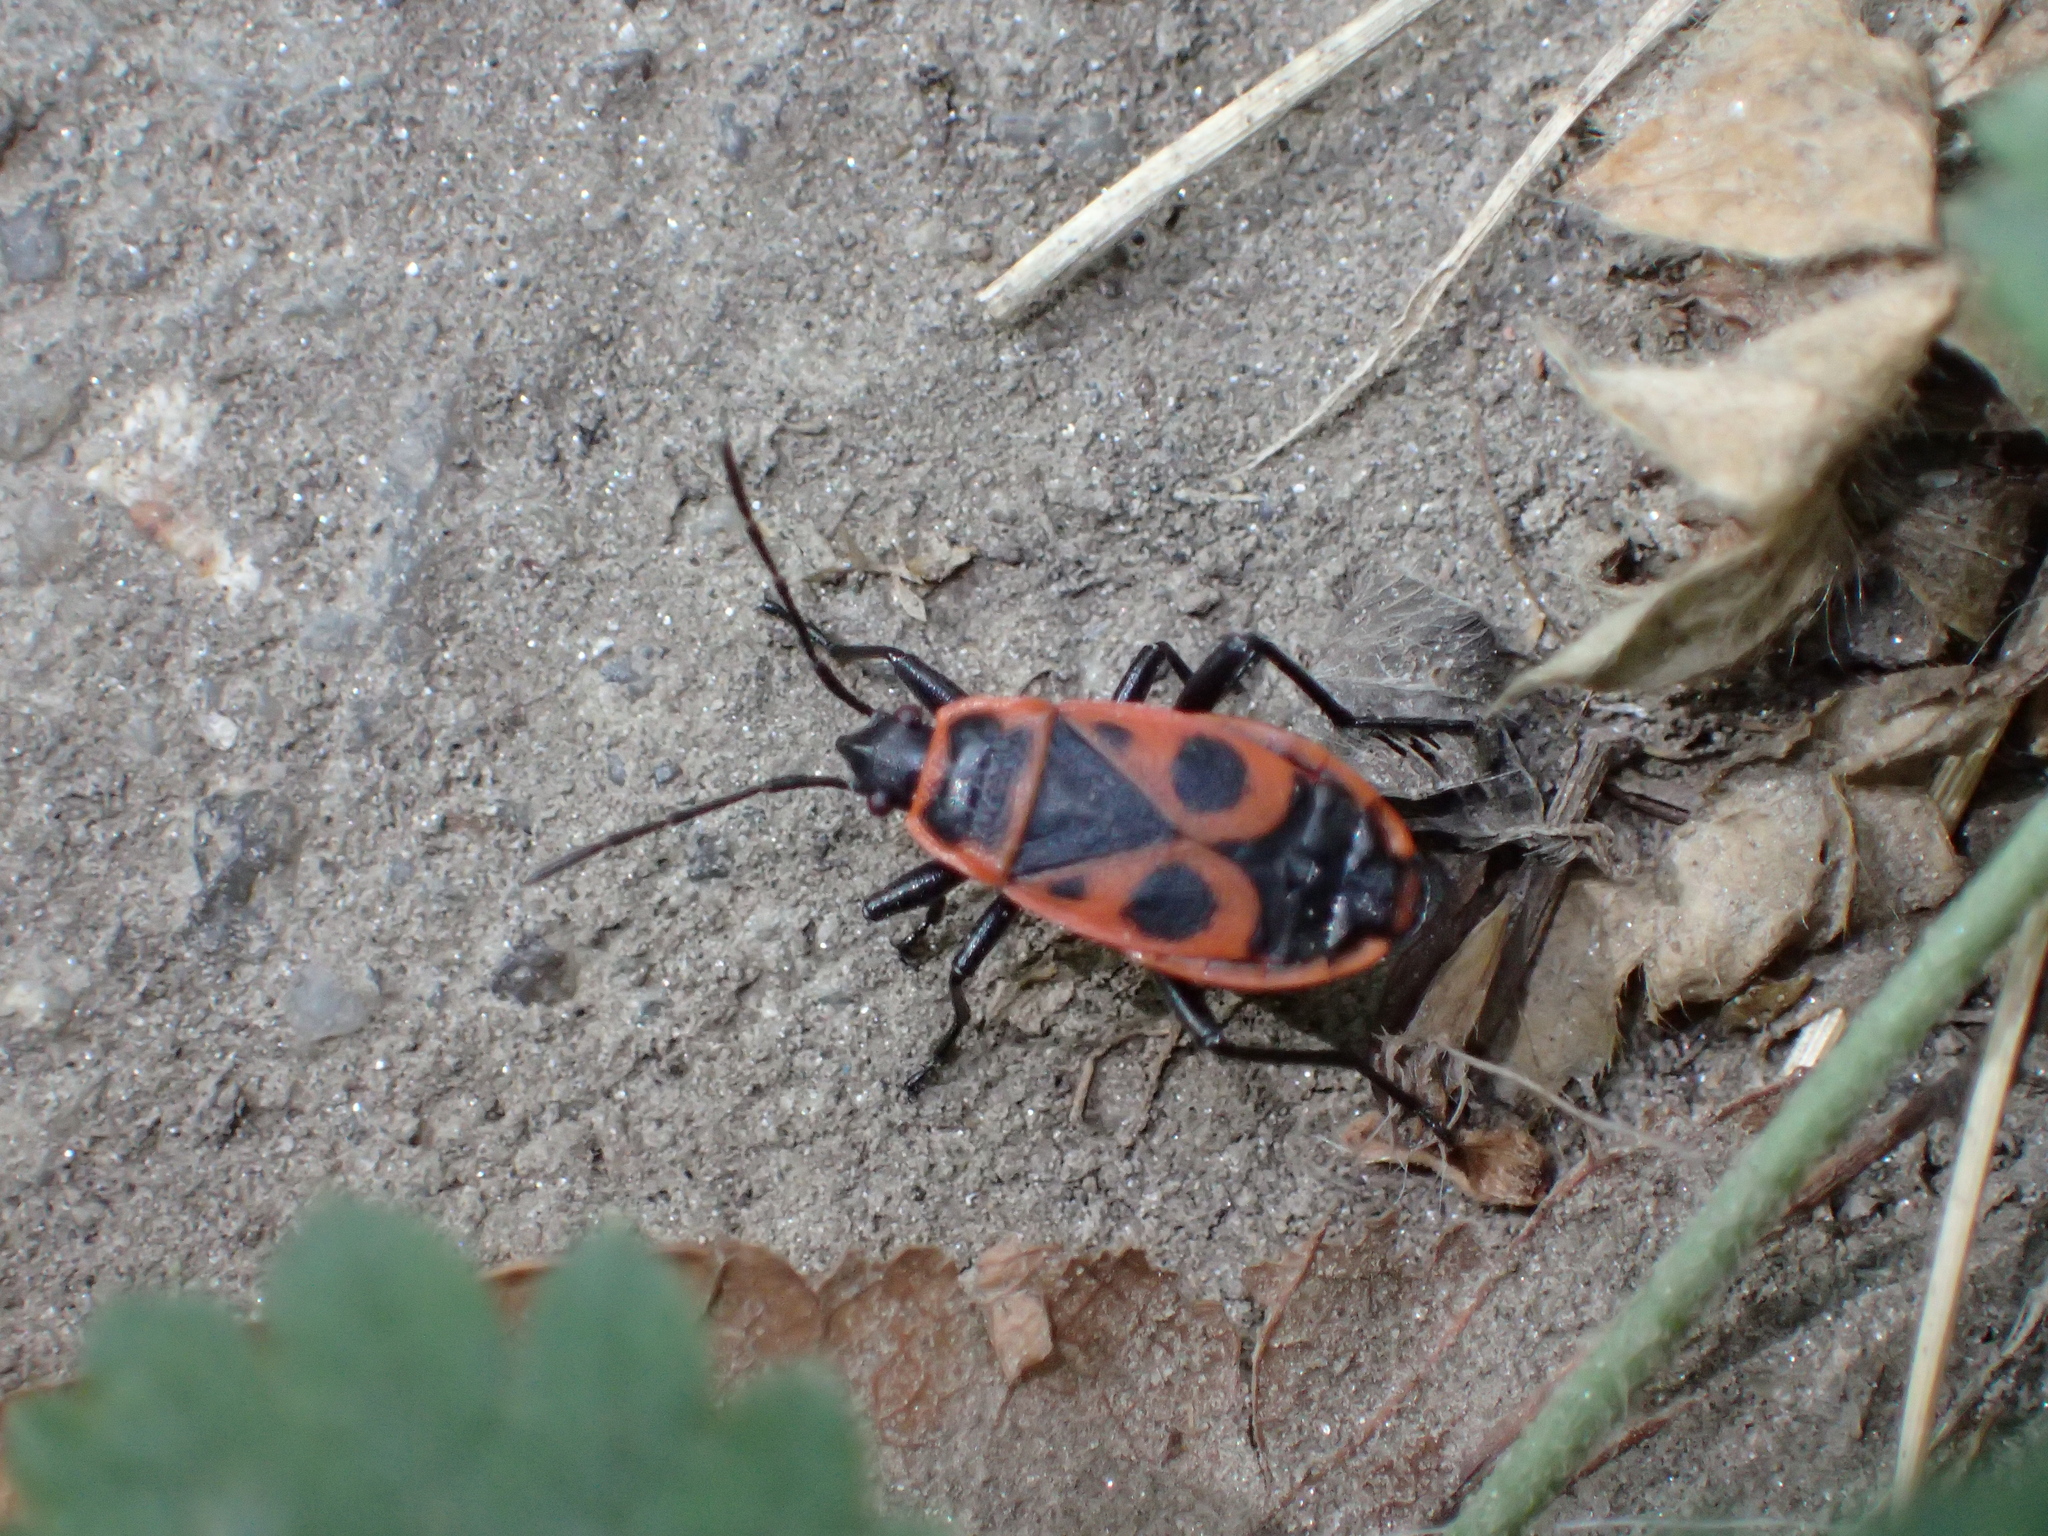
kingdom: Animalia
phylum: Arthropoda
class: Insecta
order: Hemiptera
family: Pyrrhocoridae
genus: Pyrrhocoris
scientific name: Pyrrhocoris apterus
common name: Firebug
